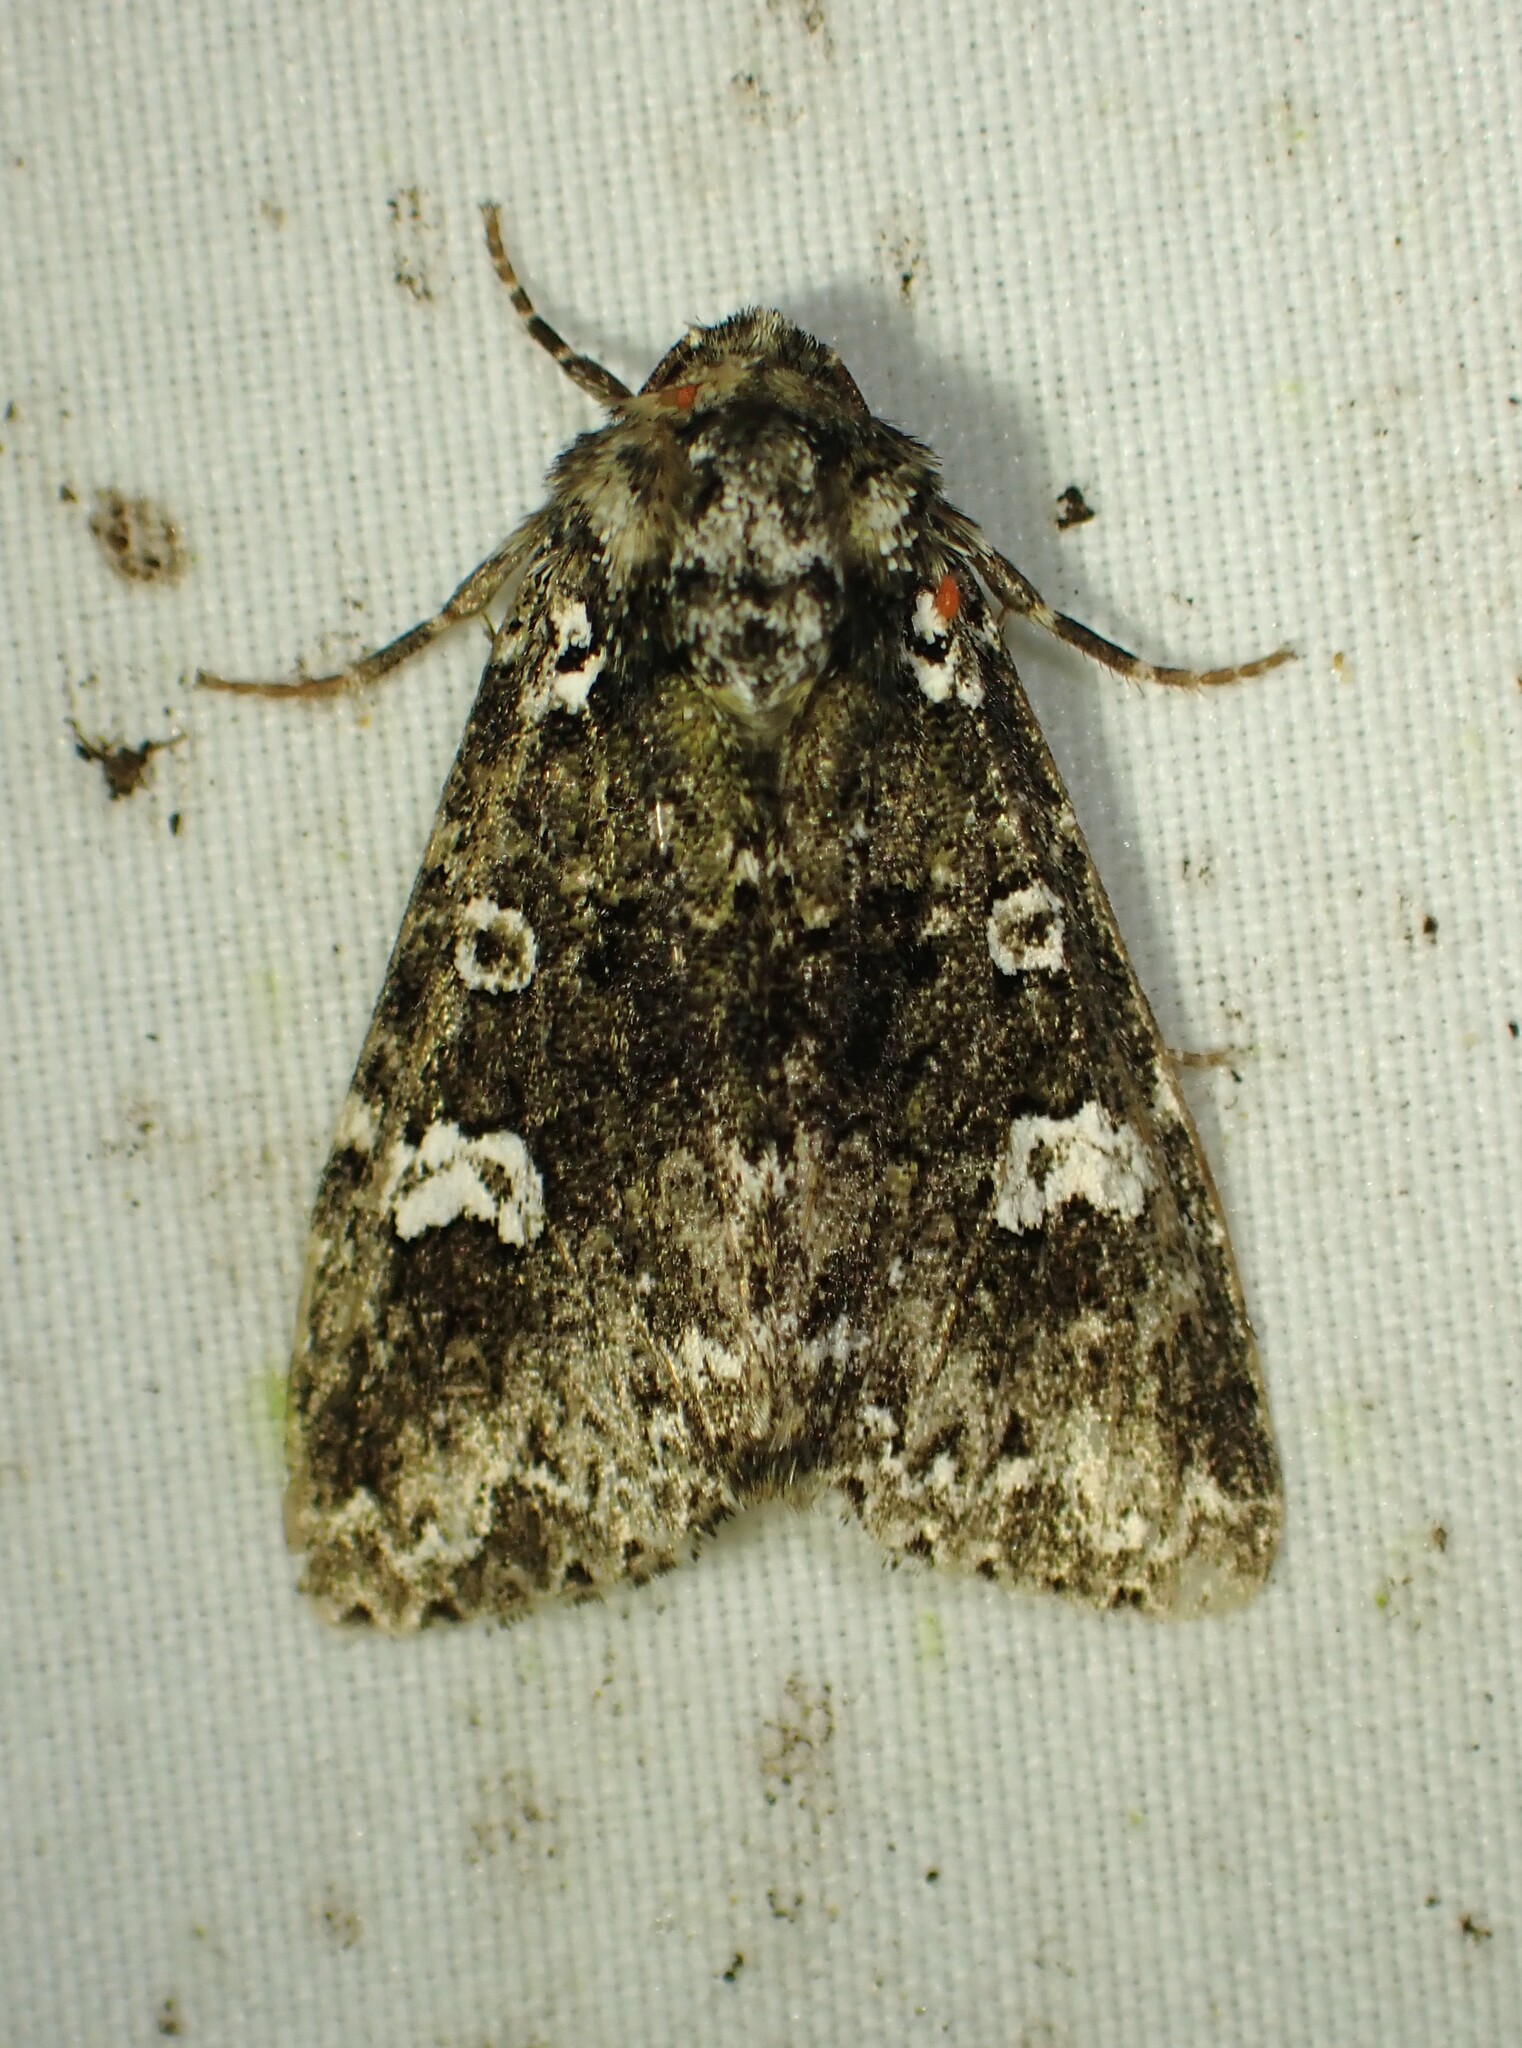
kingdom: Animalia
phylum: Arthropoda
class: Insecta
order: Lepidoptera
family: Noctuidae
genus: Melanchra
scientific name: Melanchra adjuncta
